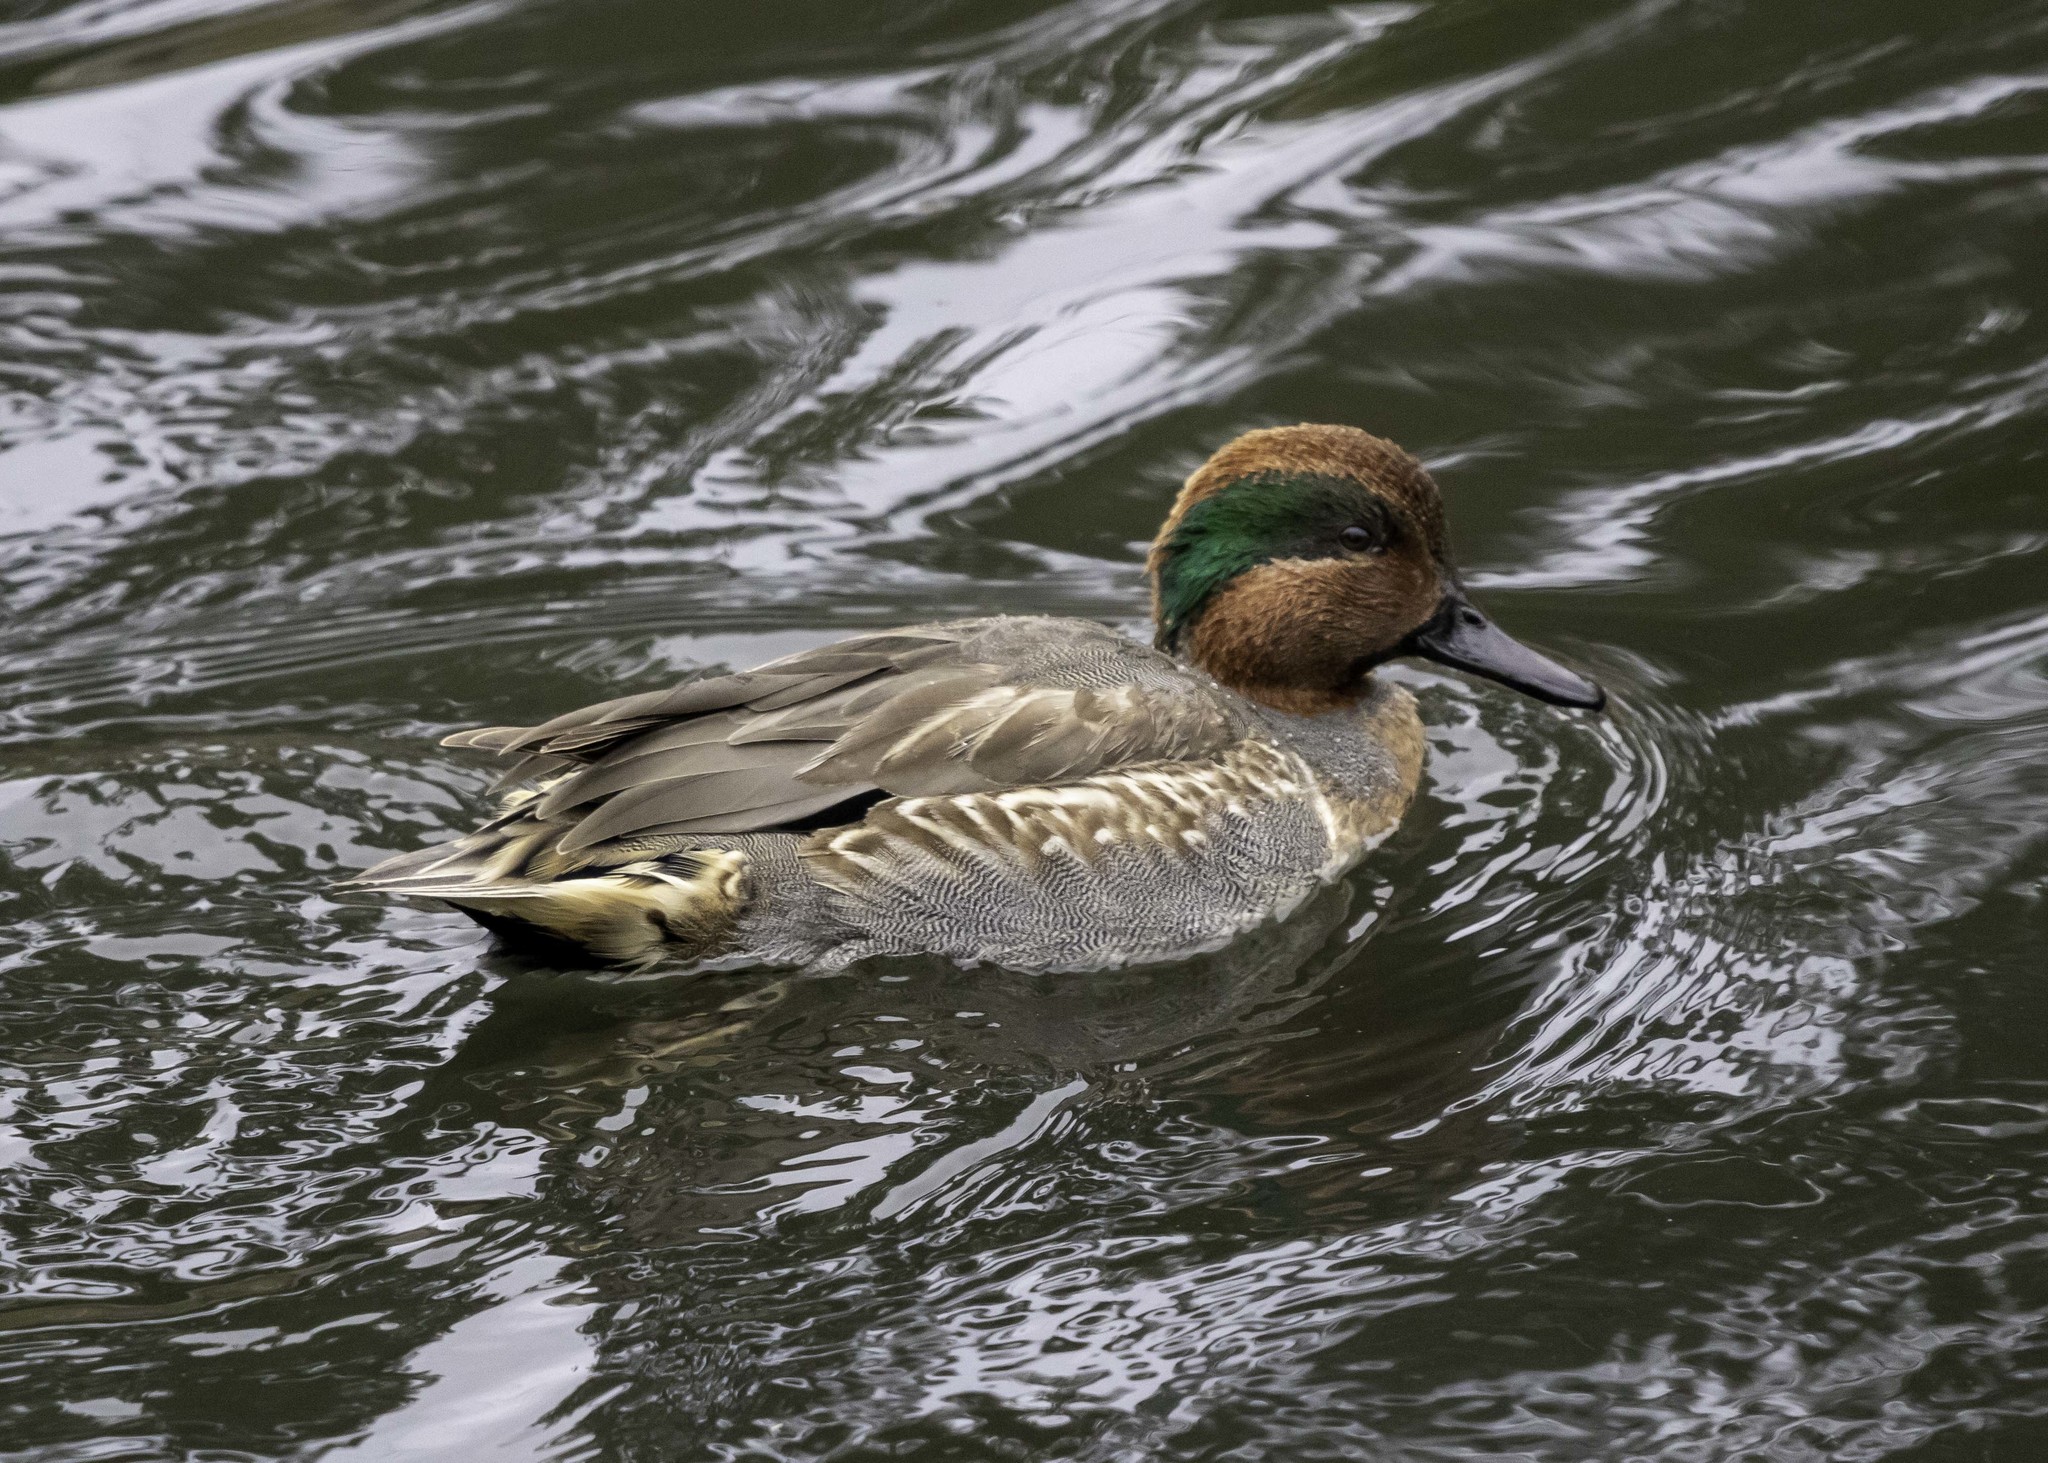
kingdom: Animalia
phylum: Chordata
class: Aves
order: Anseriformes
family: Anatidae
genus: Anas
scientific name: Anas crecca
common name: Eurasian teal
